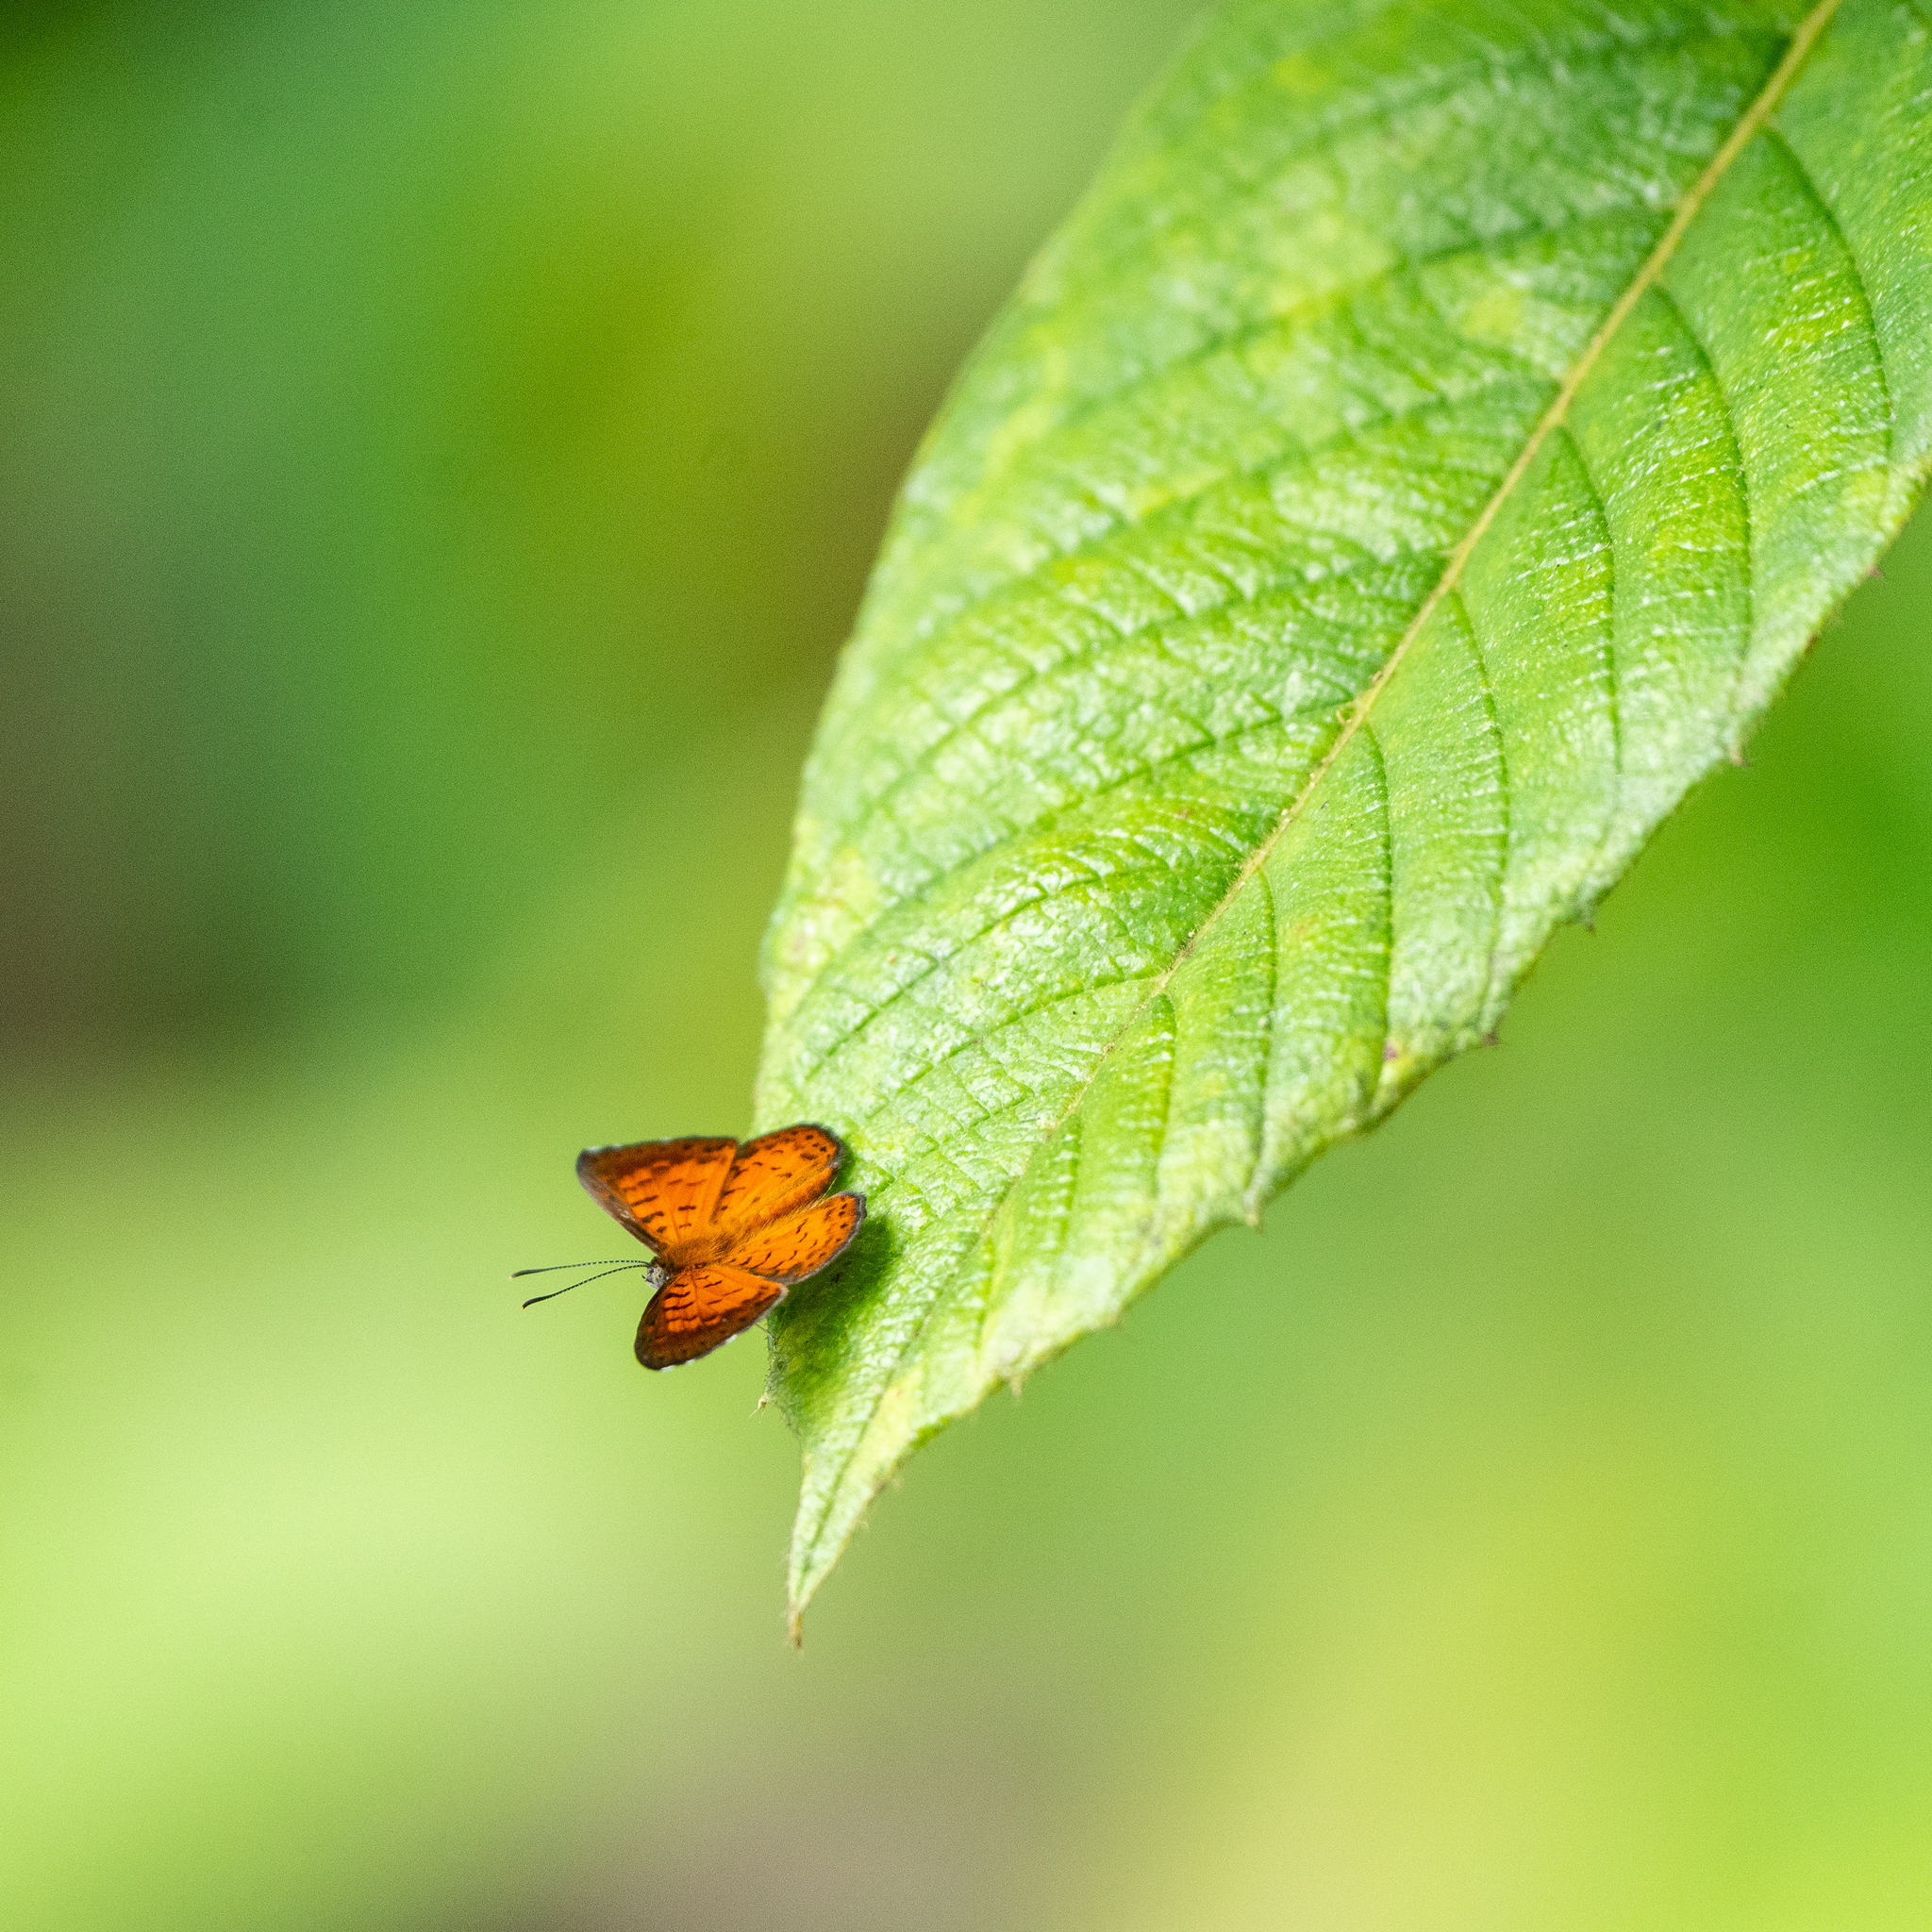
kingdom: Animalia
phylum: Arthropoda
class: Insecta
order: Lepidoptera
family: Riodinidae
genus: Polystichtis
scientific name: Polystichtis lucianus
